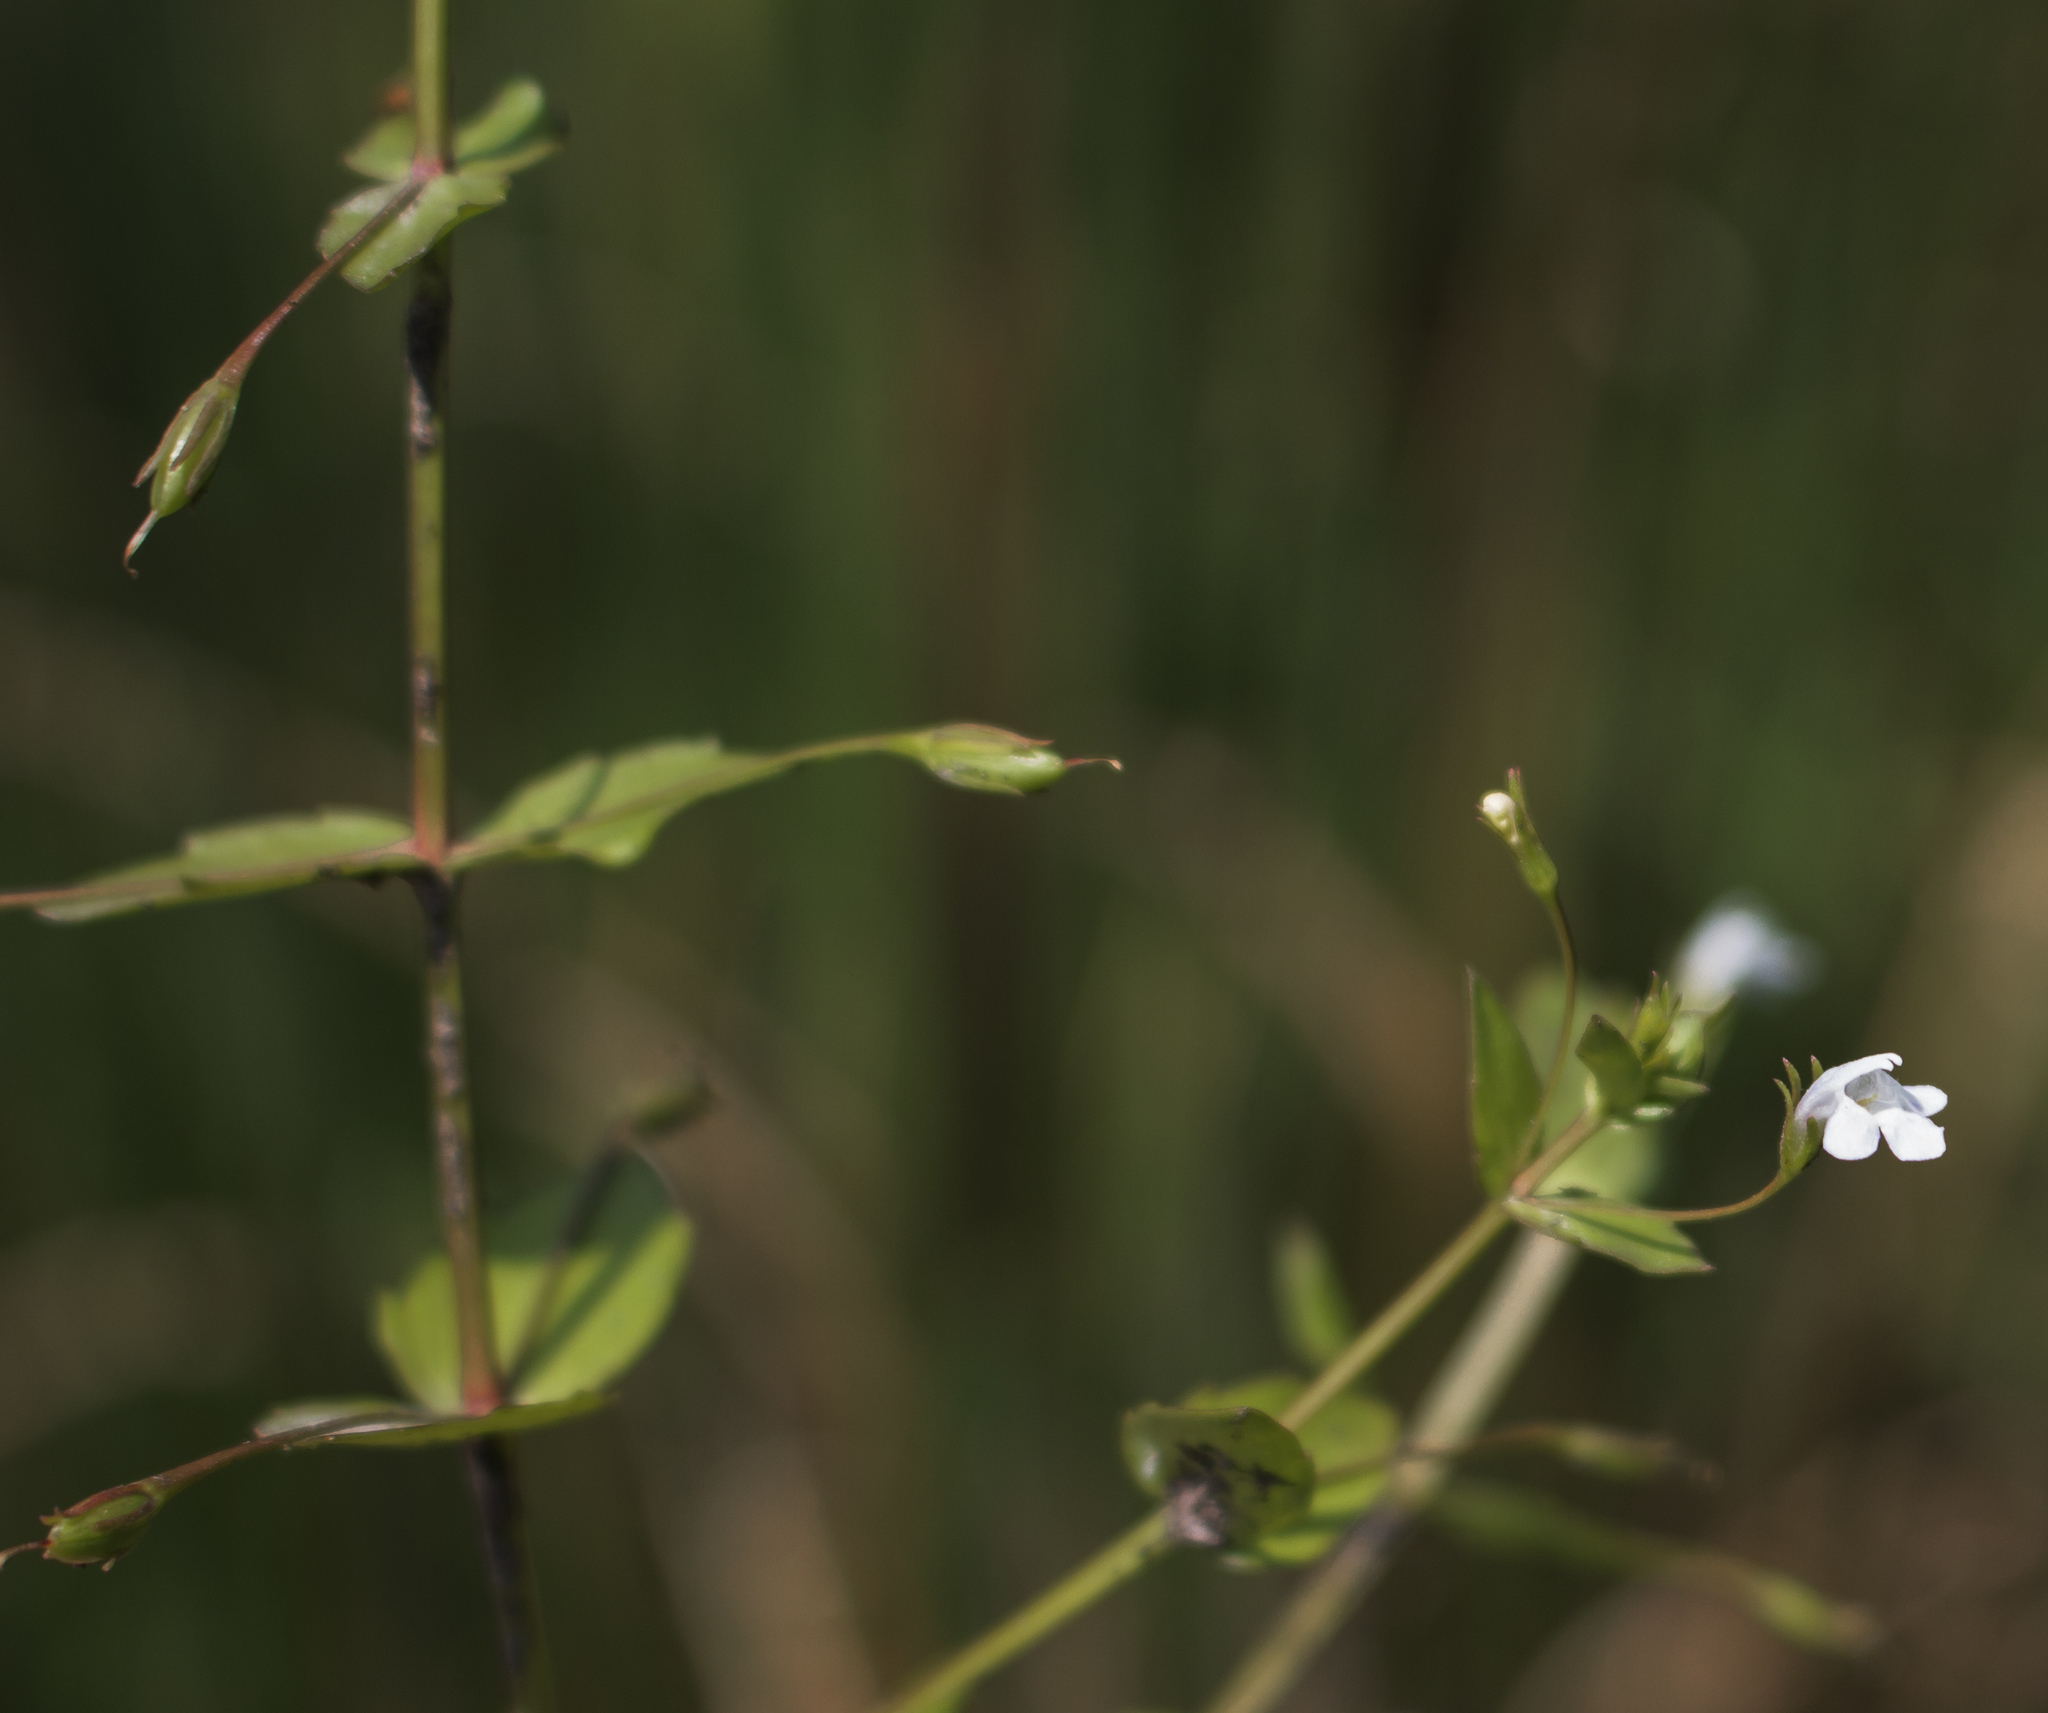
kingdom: Plantae
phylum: Tracheophyta
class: Magnoliopsida
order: Lamiales
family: Linderniaceae
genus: Lindernia
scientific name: Lindernia dubia
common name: Annual false pimpernel
